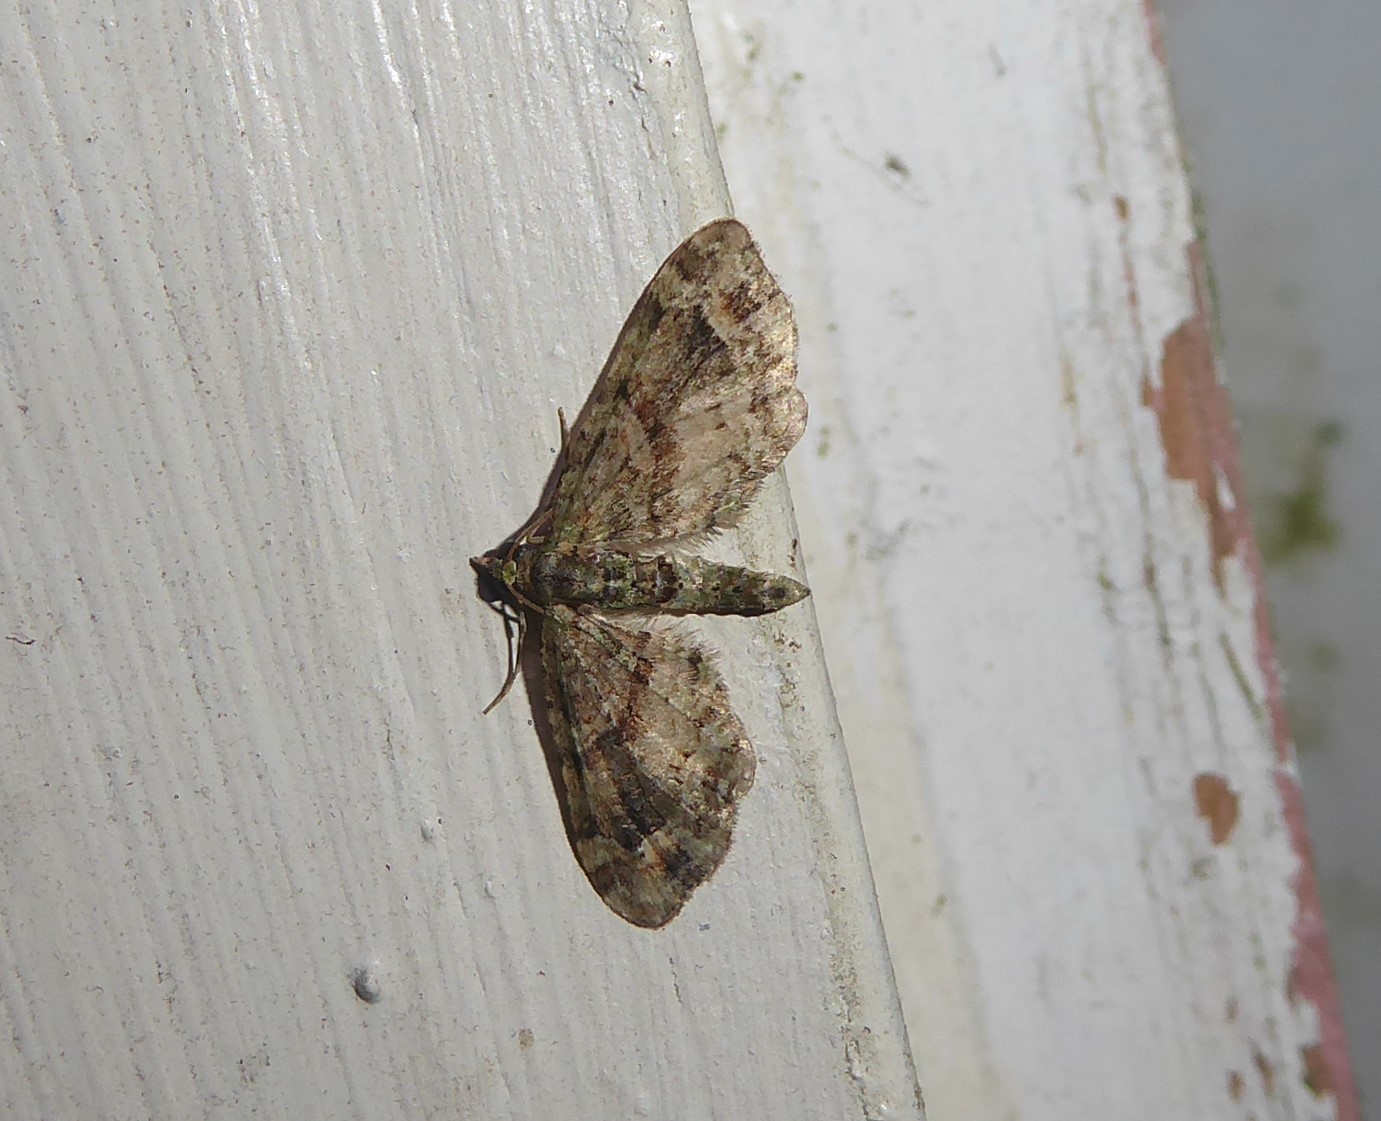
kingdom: Animalia
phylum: Arthropoda
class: Insecta
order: Lepidoptera
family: Geometridae
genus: Idaea
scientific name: Idaea mutanda
